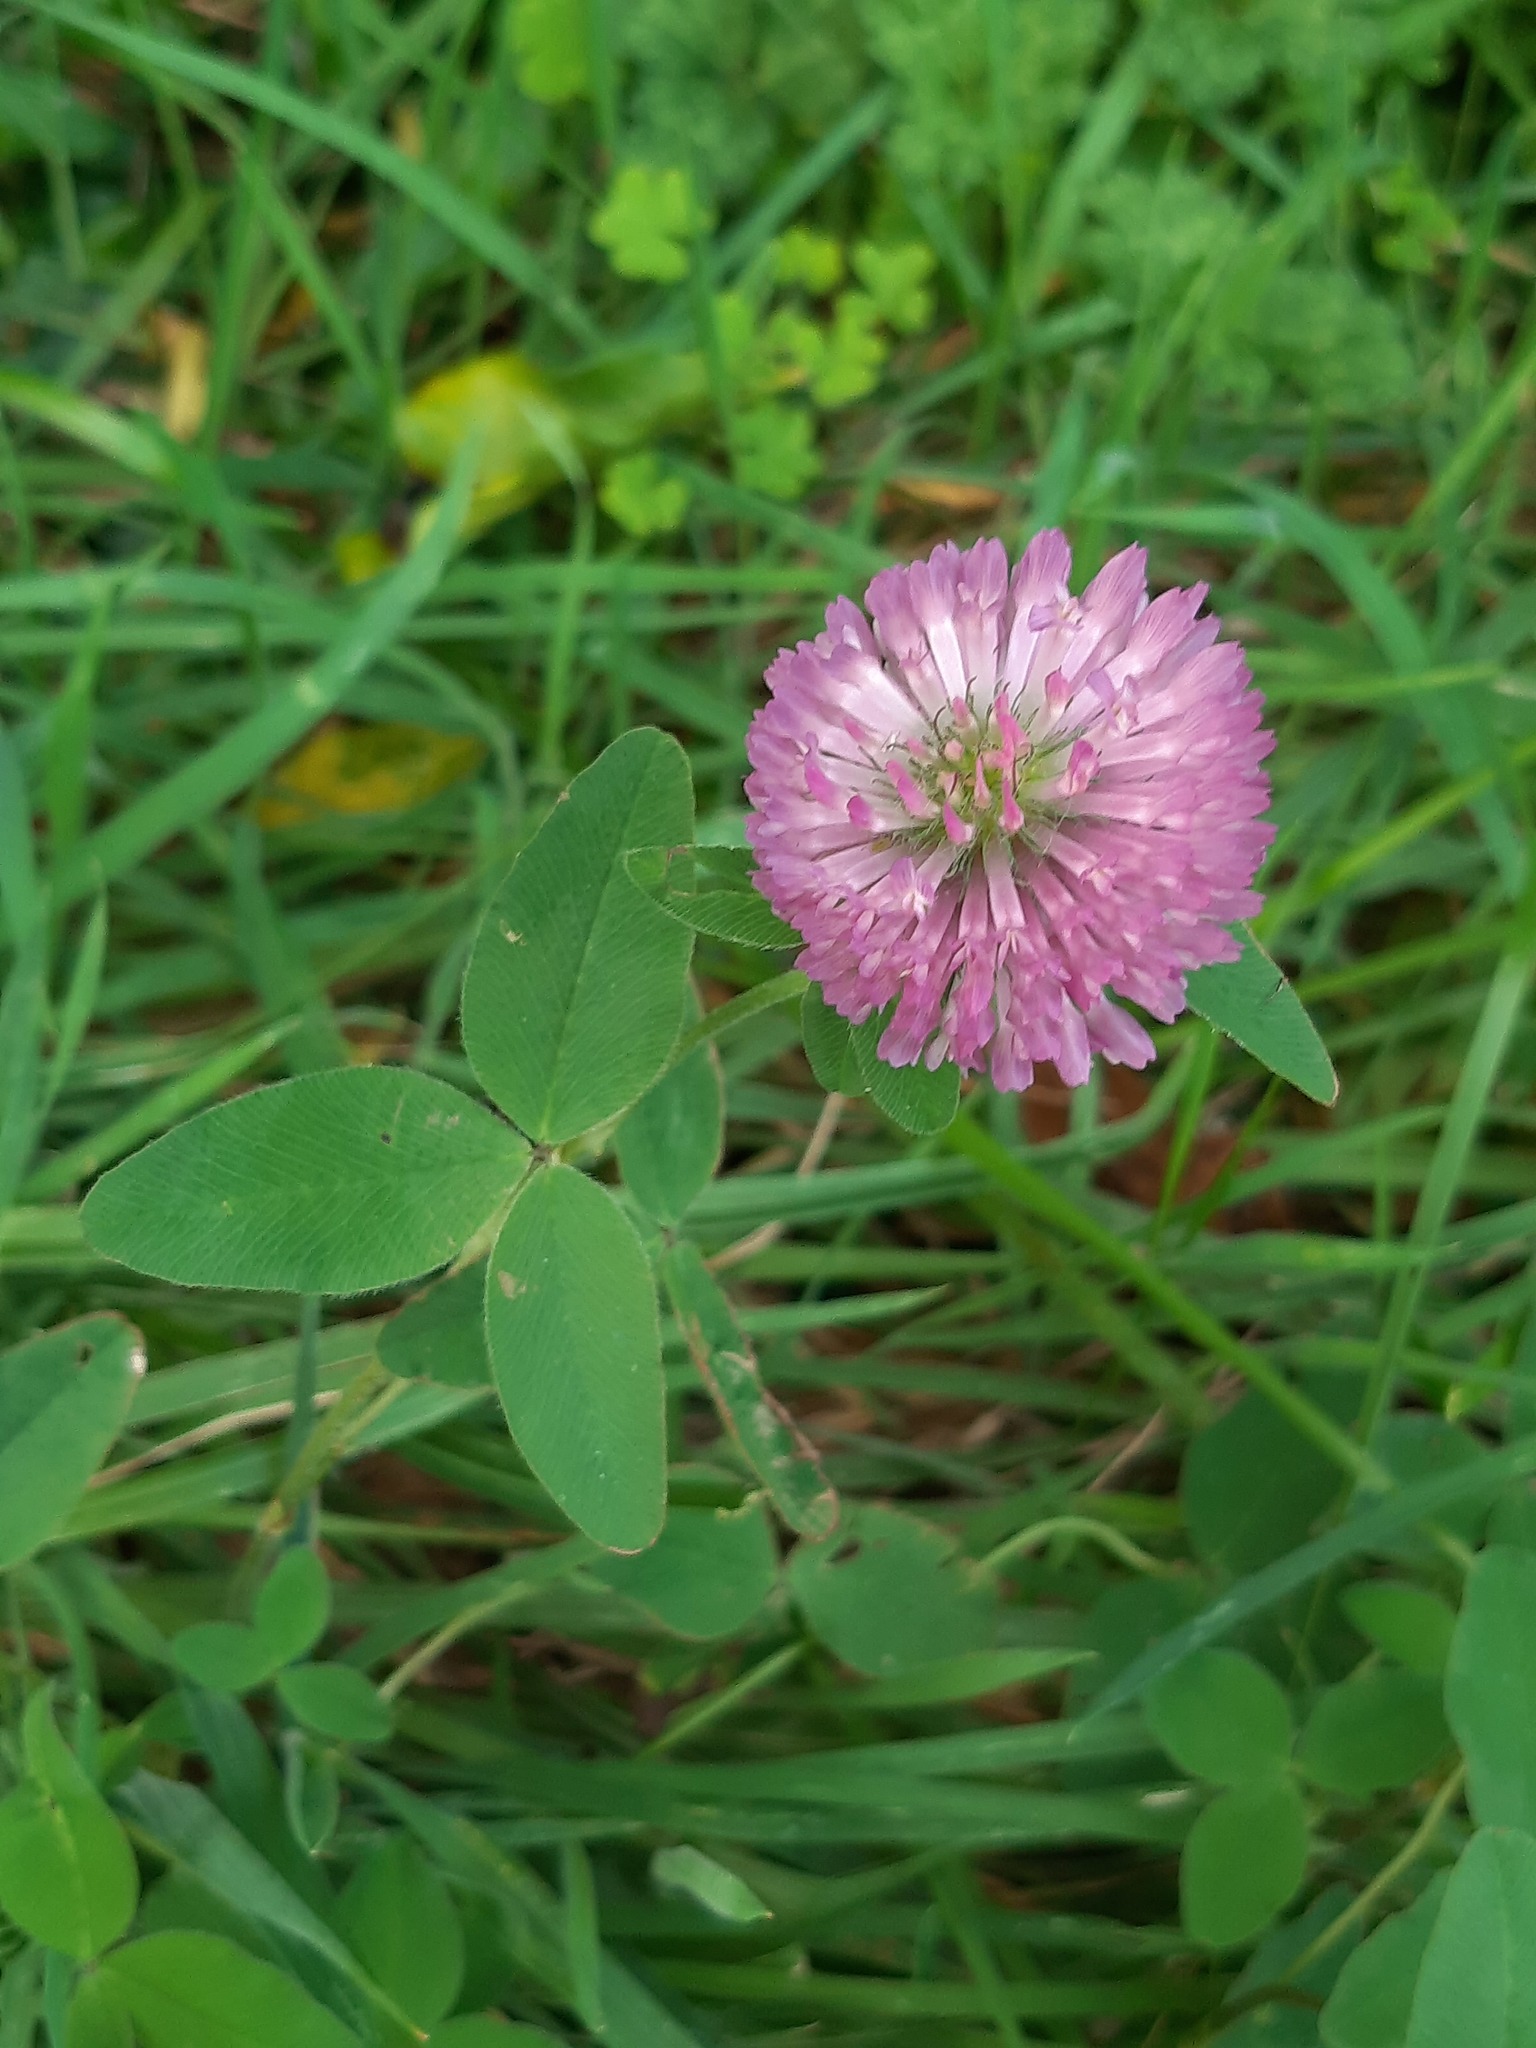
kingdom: Plantae
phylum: Tracheophyta
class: Magnoliopsida
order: Fabales
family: Fabaceae
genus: Trifolium
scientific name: Trifolium pratense
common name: Red clover
